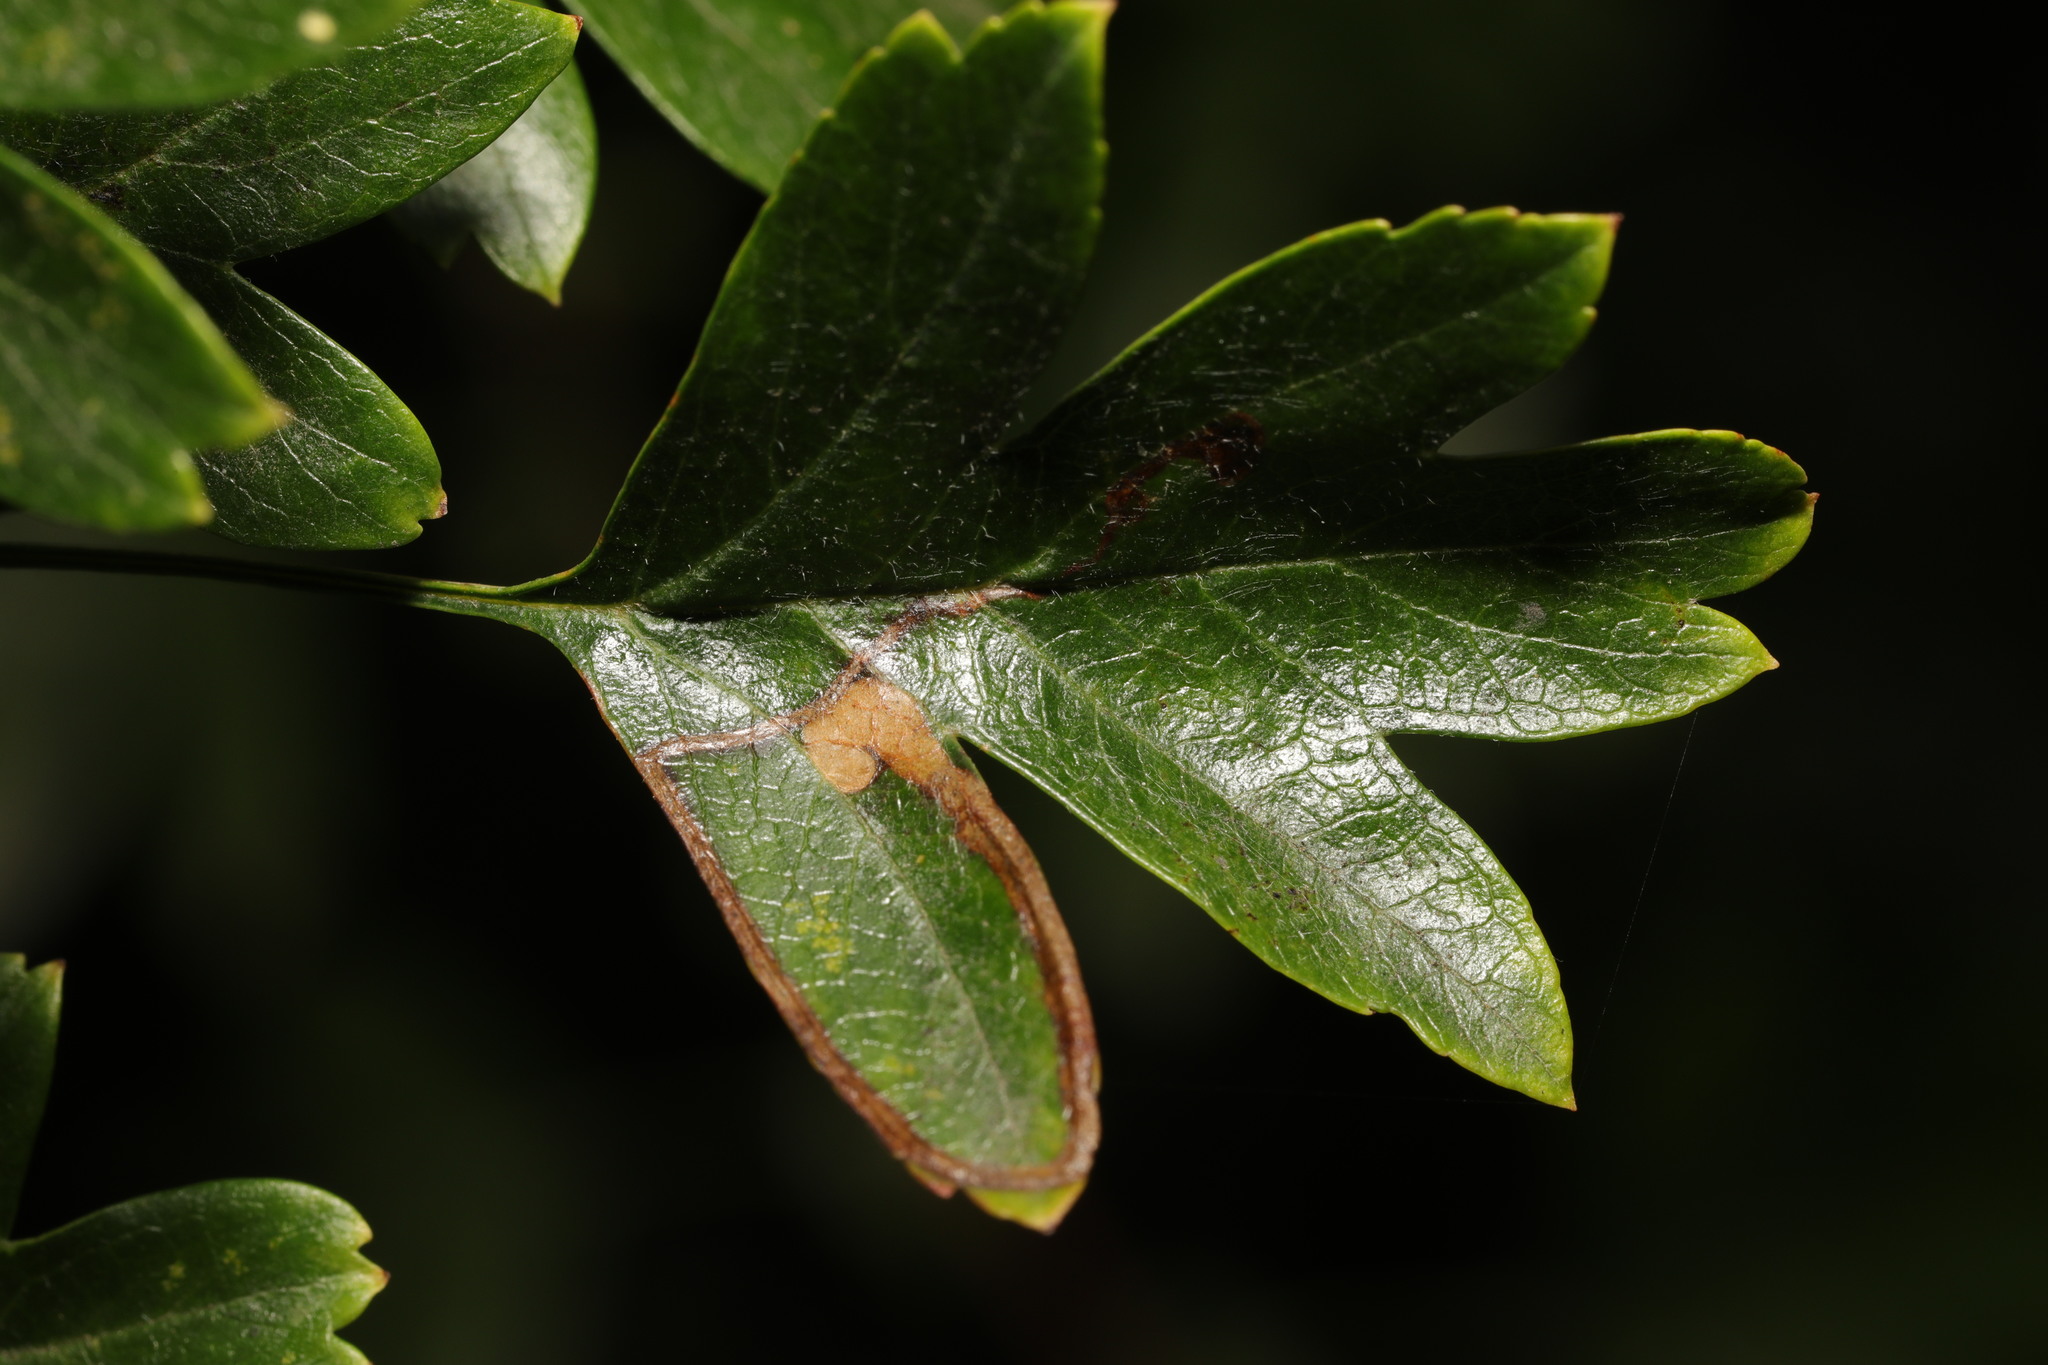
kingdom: Animalia
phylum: Arthropoda
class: Insecta
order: Lepidoptera
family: Lyonetiidae
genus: Lyonetia
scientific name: Lyonetia clerkella
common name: Apple leaf miner
